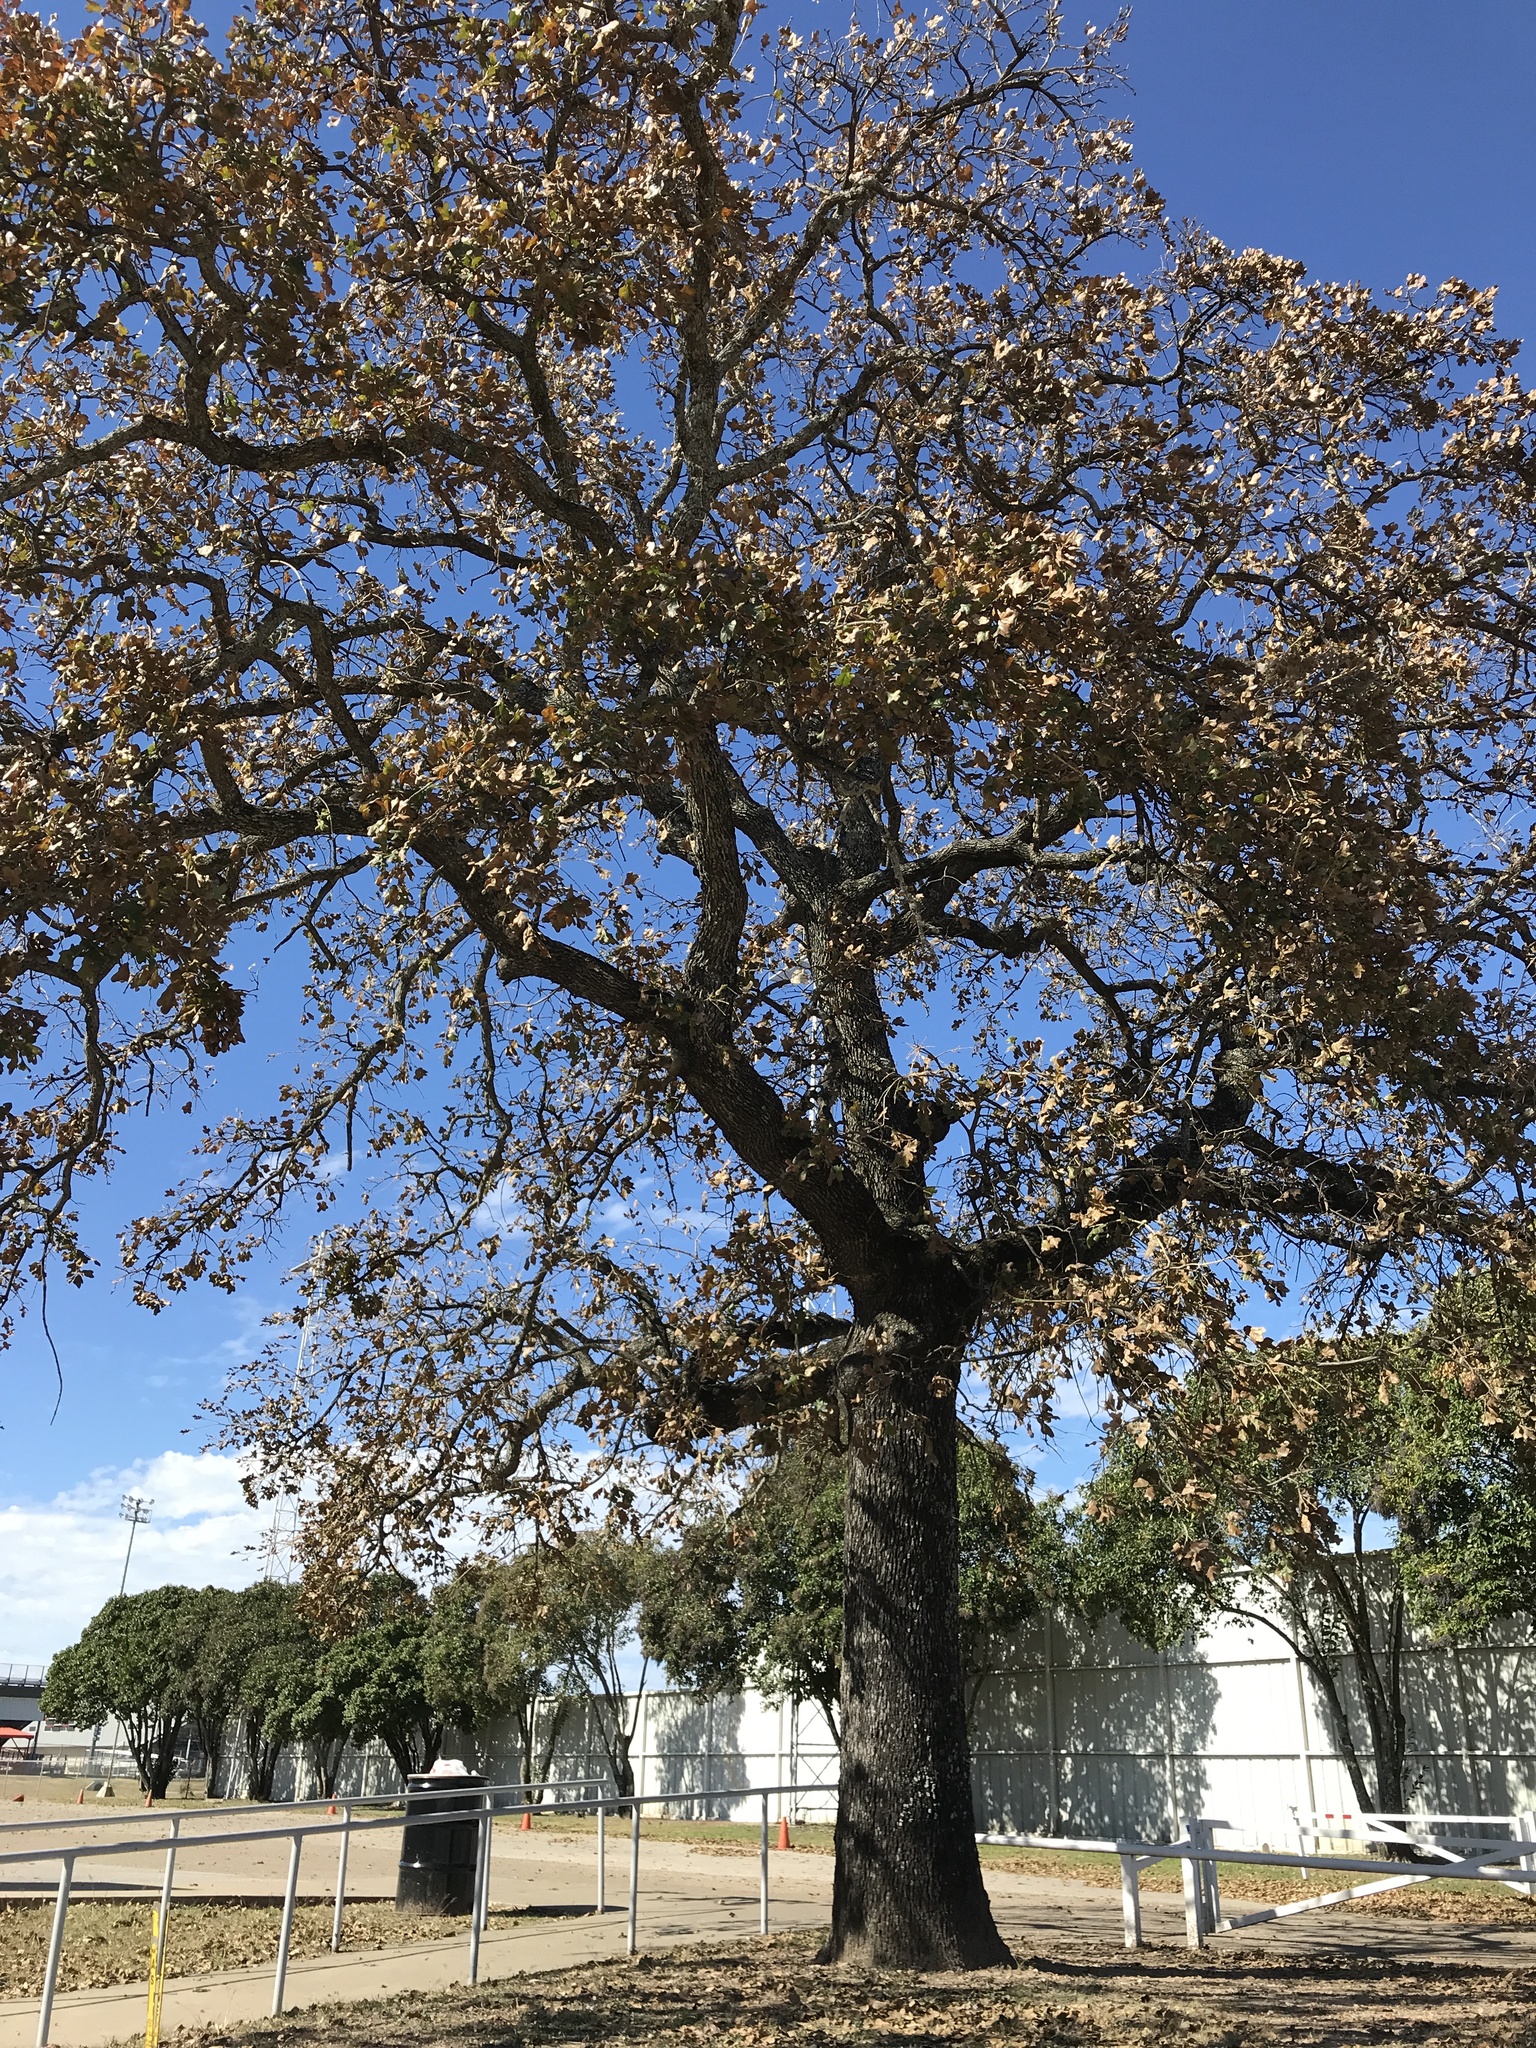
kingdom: Plantae
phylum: Tracheophyta
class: Magnoliopsida
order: Fagales
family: Fagaceae
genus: Quercus
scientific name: Quercus stellata
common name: Post oak
